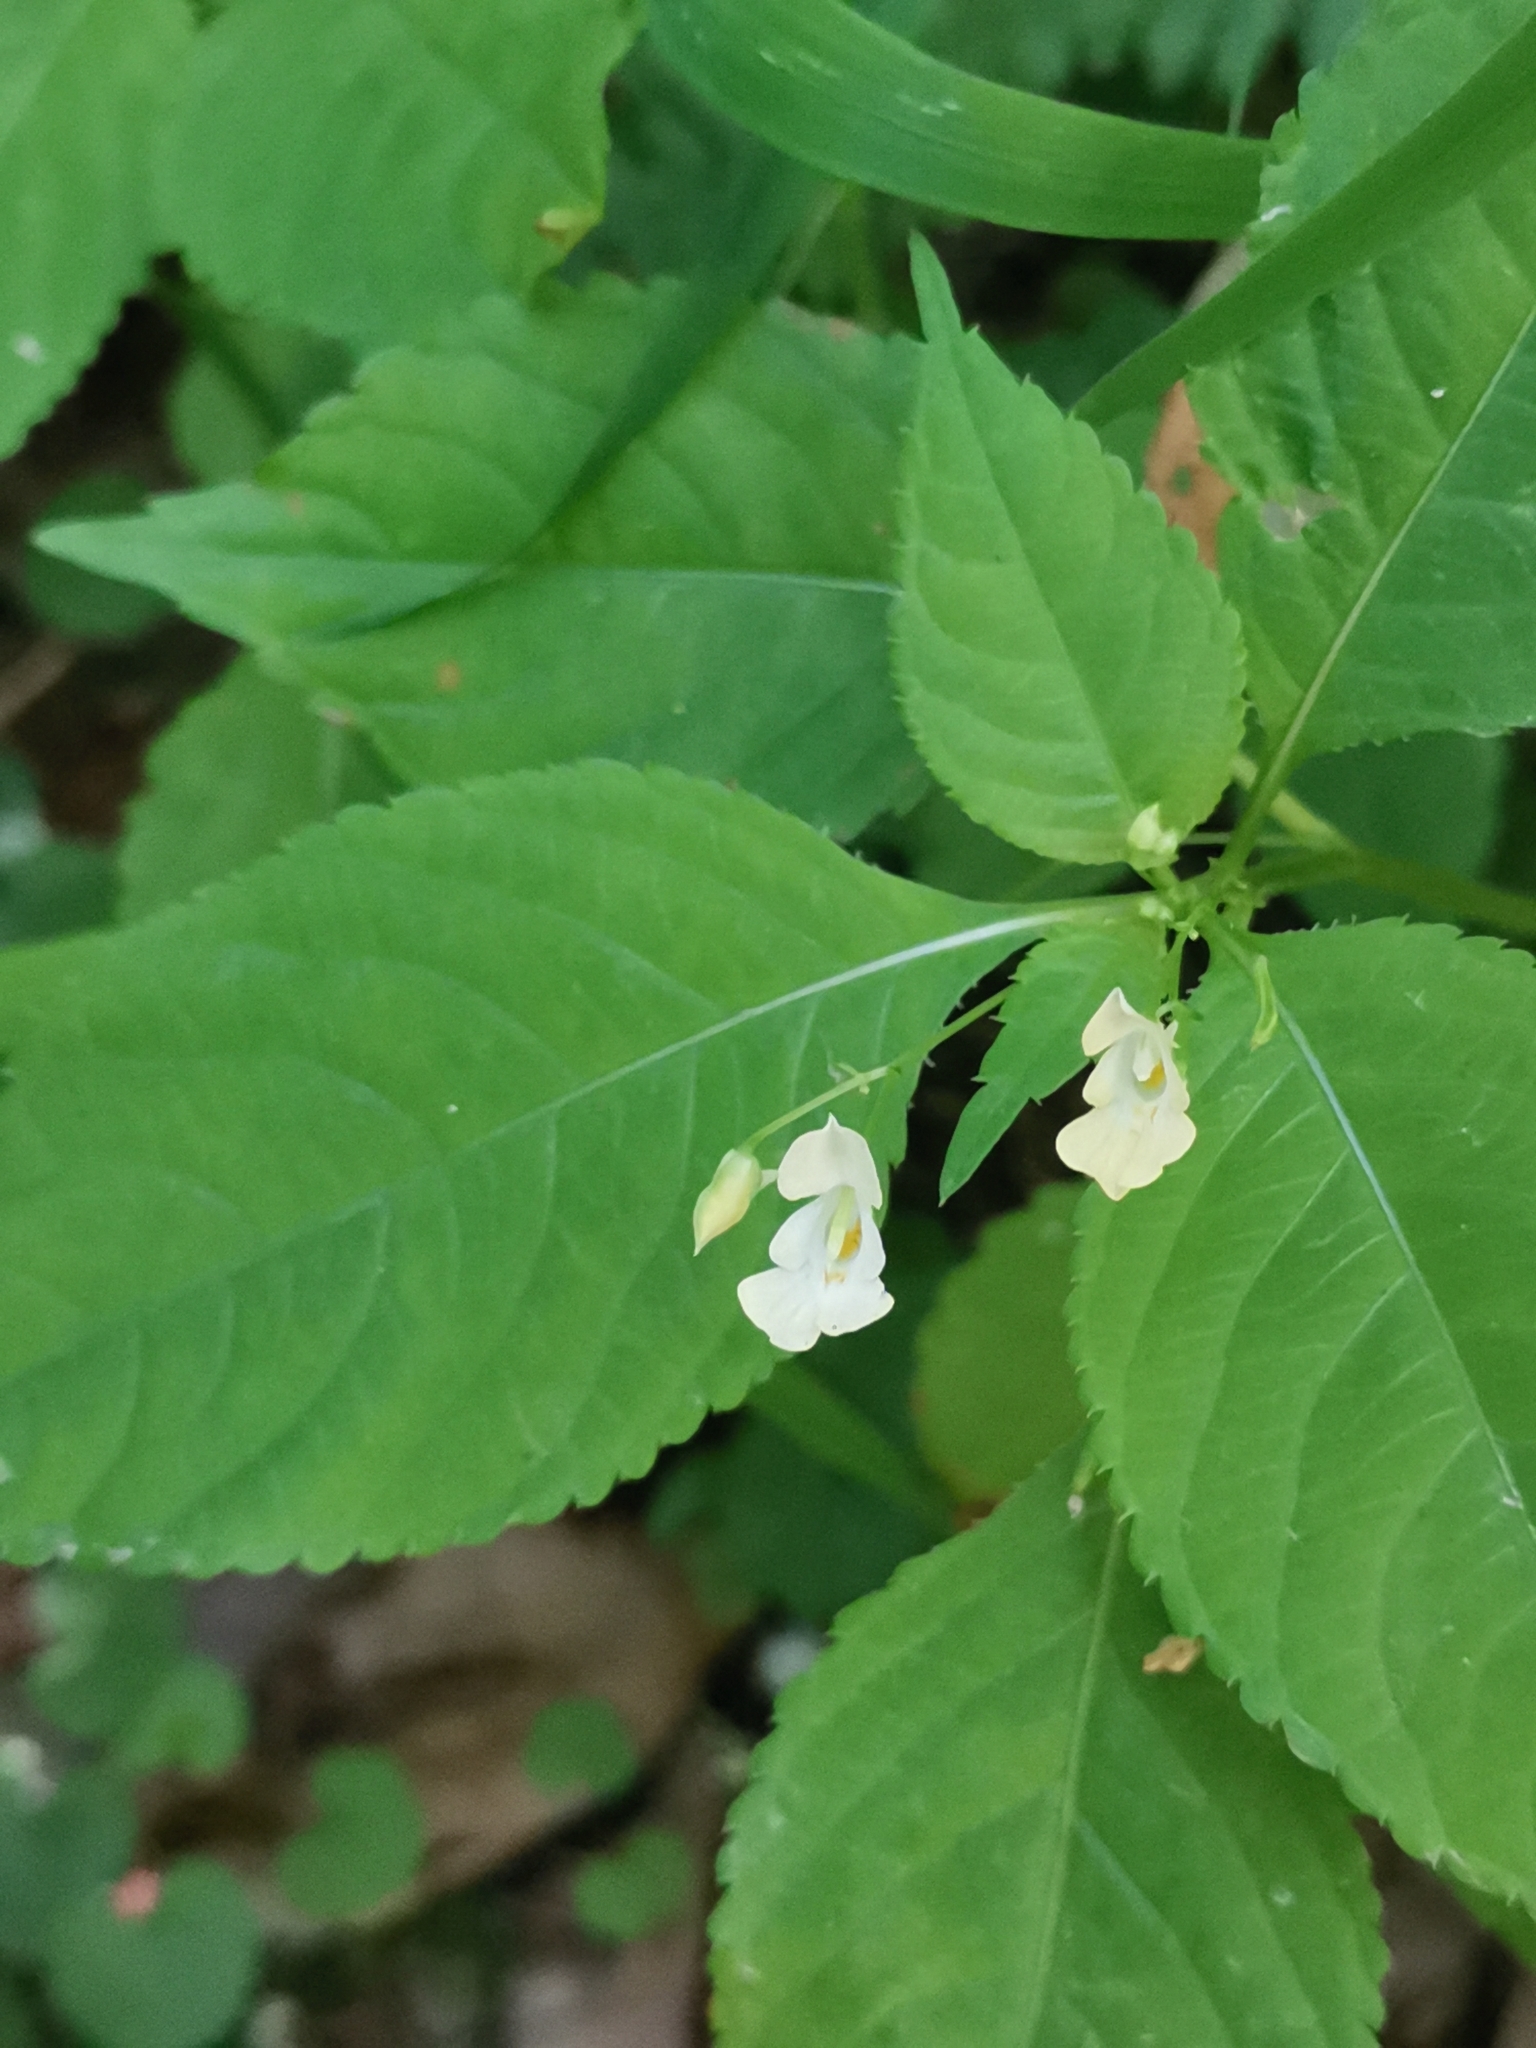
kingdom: Plantae
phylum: Tracheophyta
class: Magnoliopsida
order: Ericales
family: Balsaminaceae
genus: Impatiens
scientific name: Impatiens parviflora
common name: Small balsam
